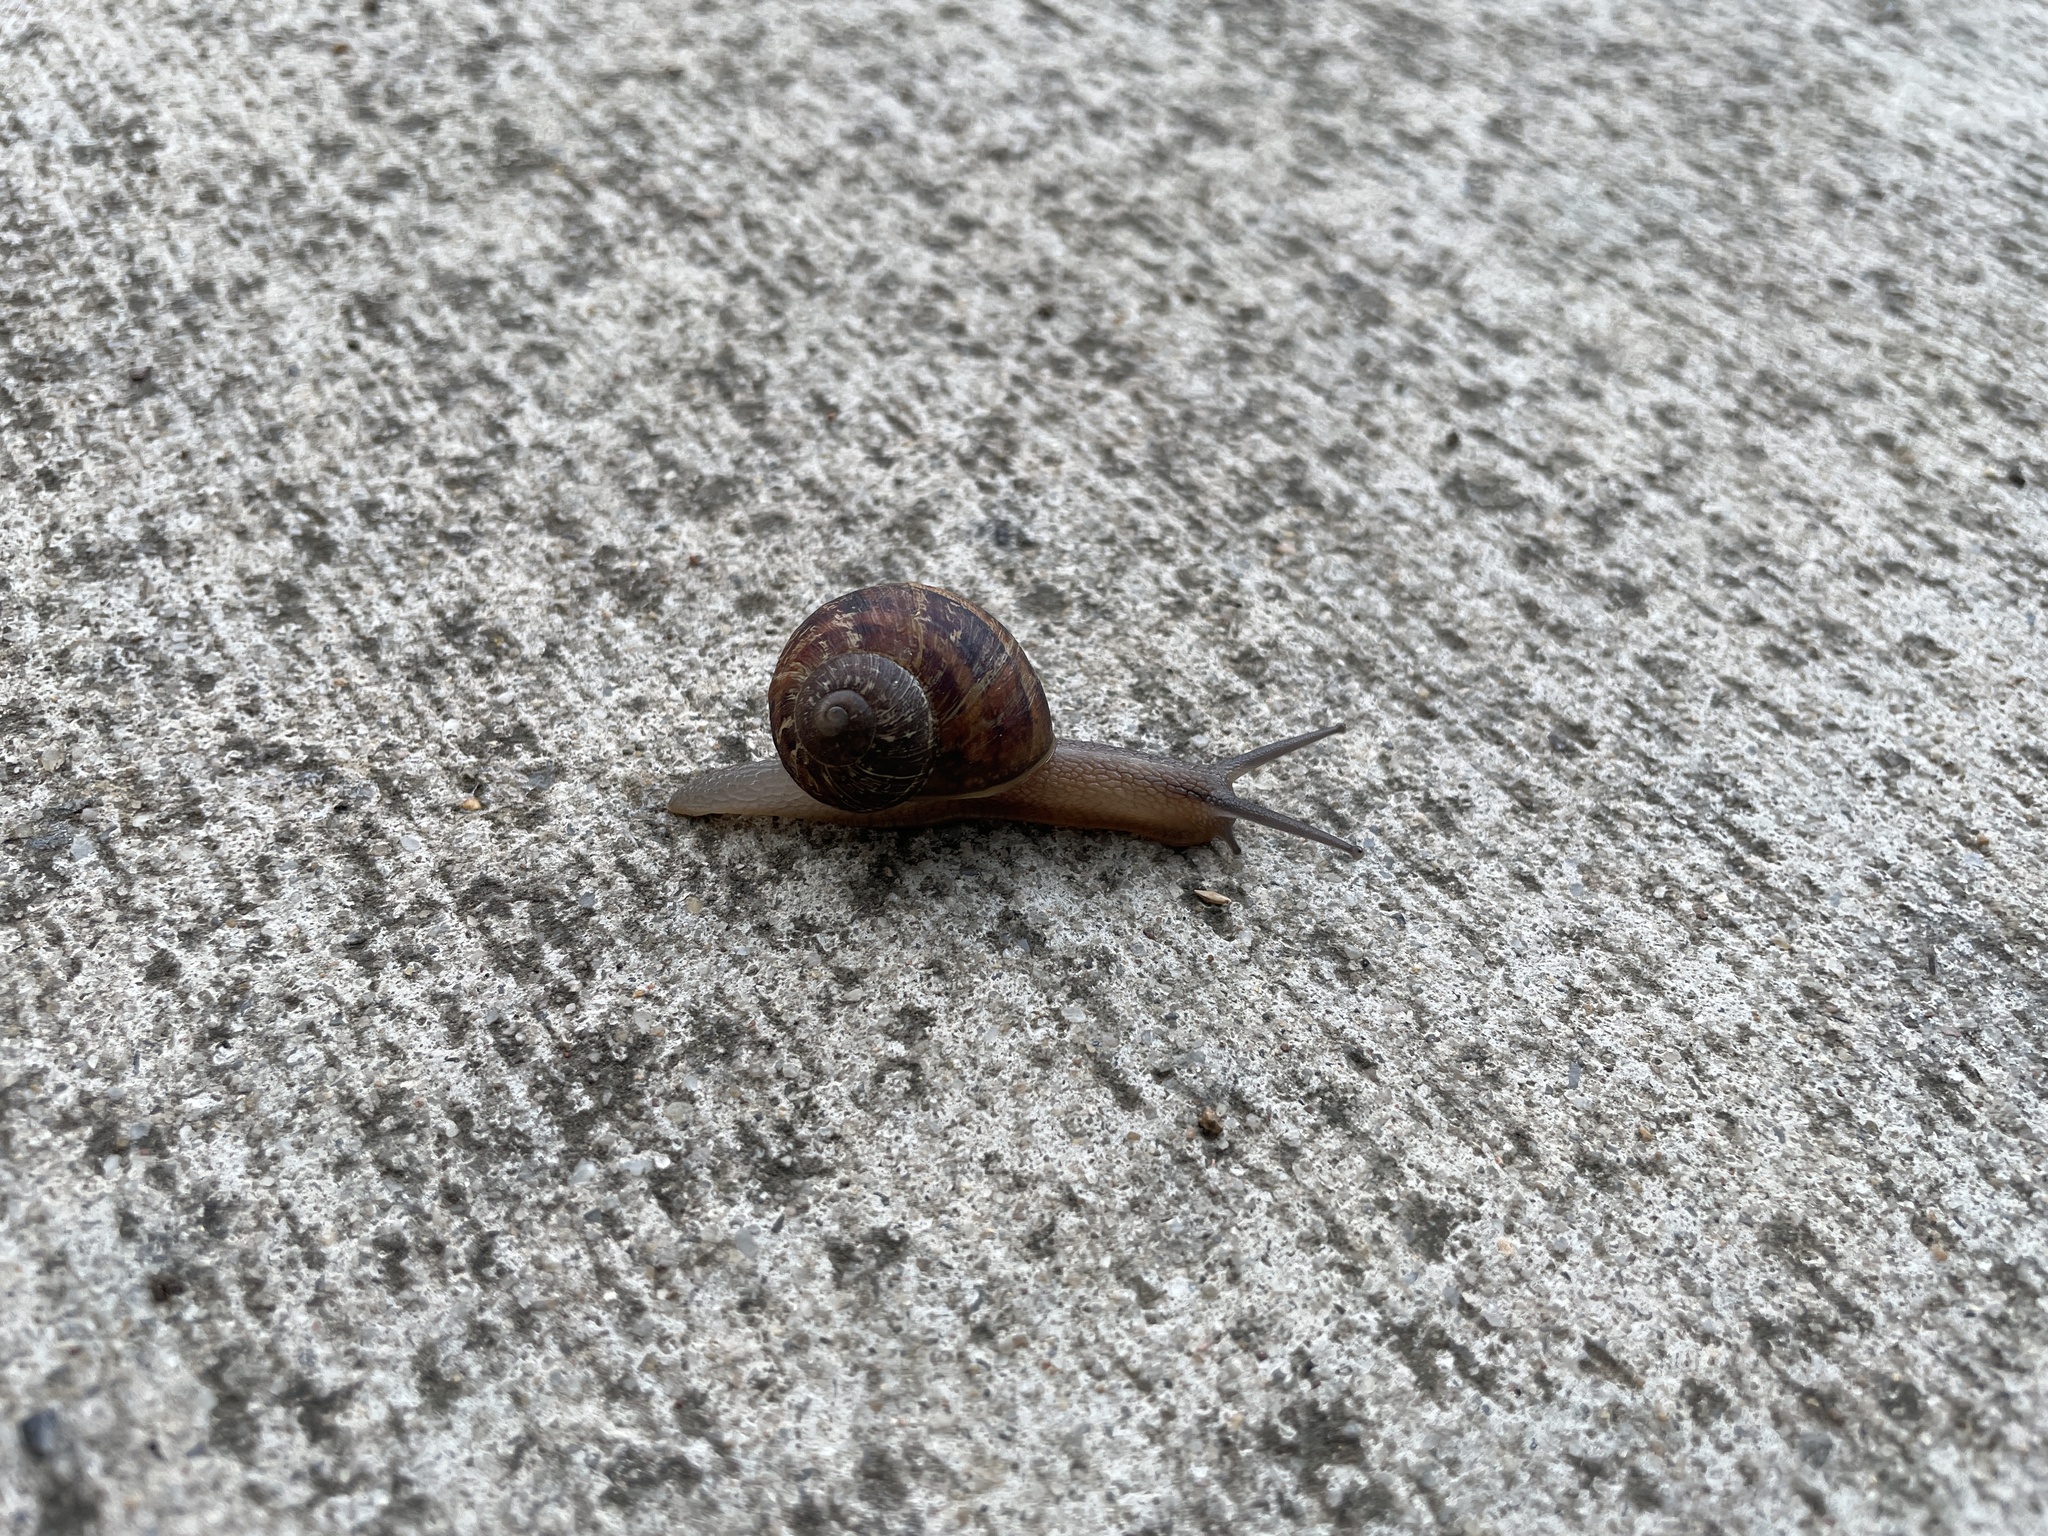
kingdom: Animalia
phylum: Mollusca
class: Gastropoda
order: Stylommatophora
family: Helicidae
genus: Cornu
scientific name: Cornu aspersum
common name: Brown garden snail
